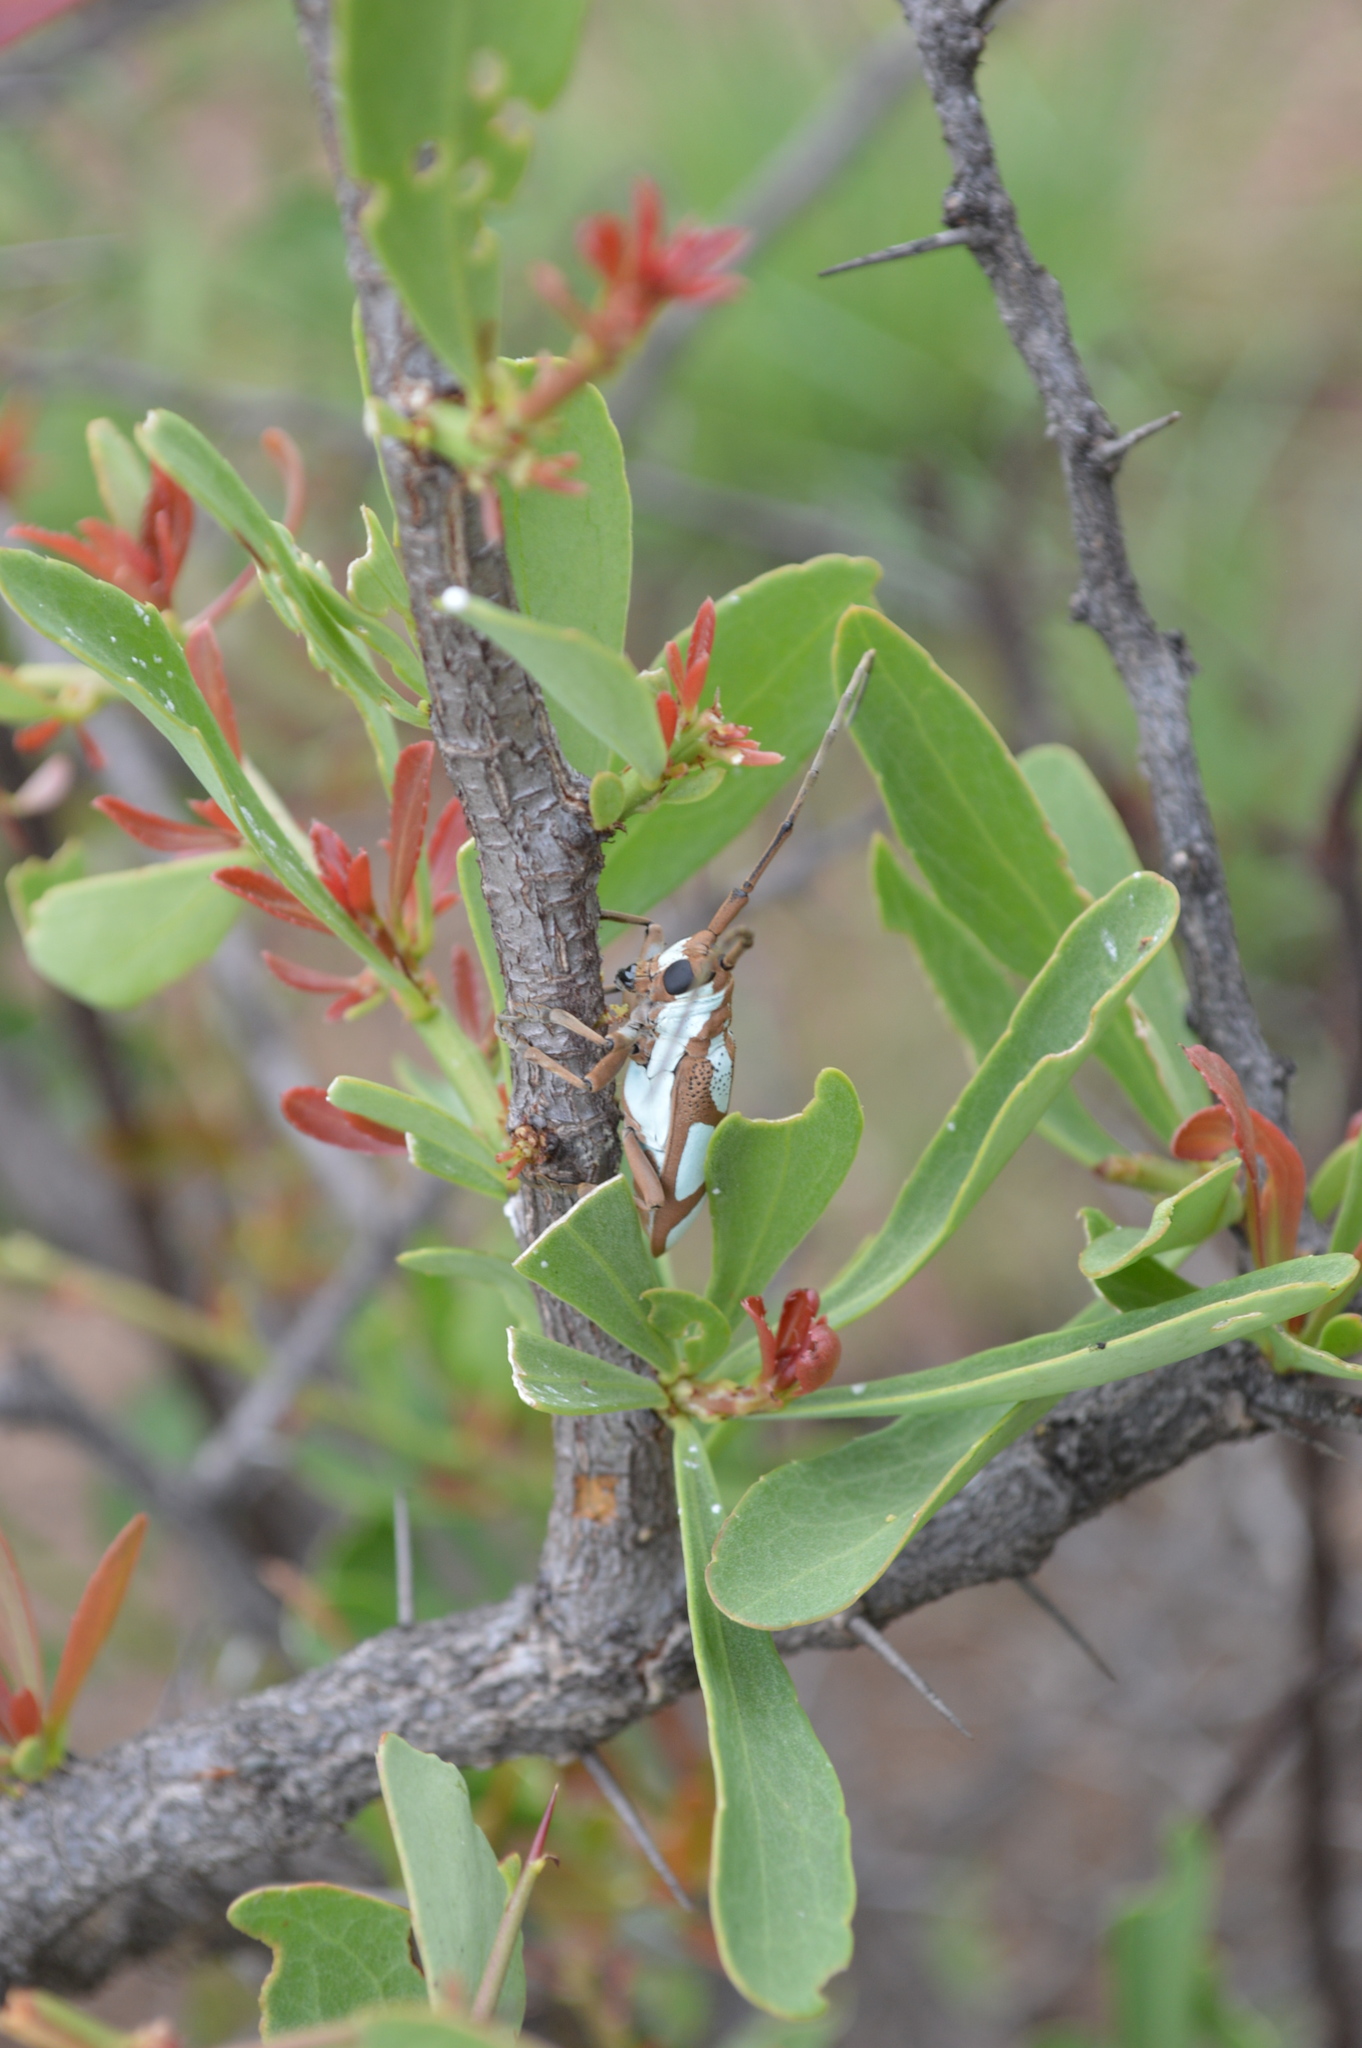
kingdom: Animalia
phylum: Arthropoda
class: Insecta
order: Coleoptera
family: Cerambycidae
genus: Prosopocera
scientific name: Prosopocera lactator
